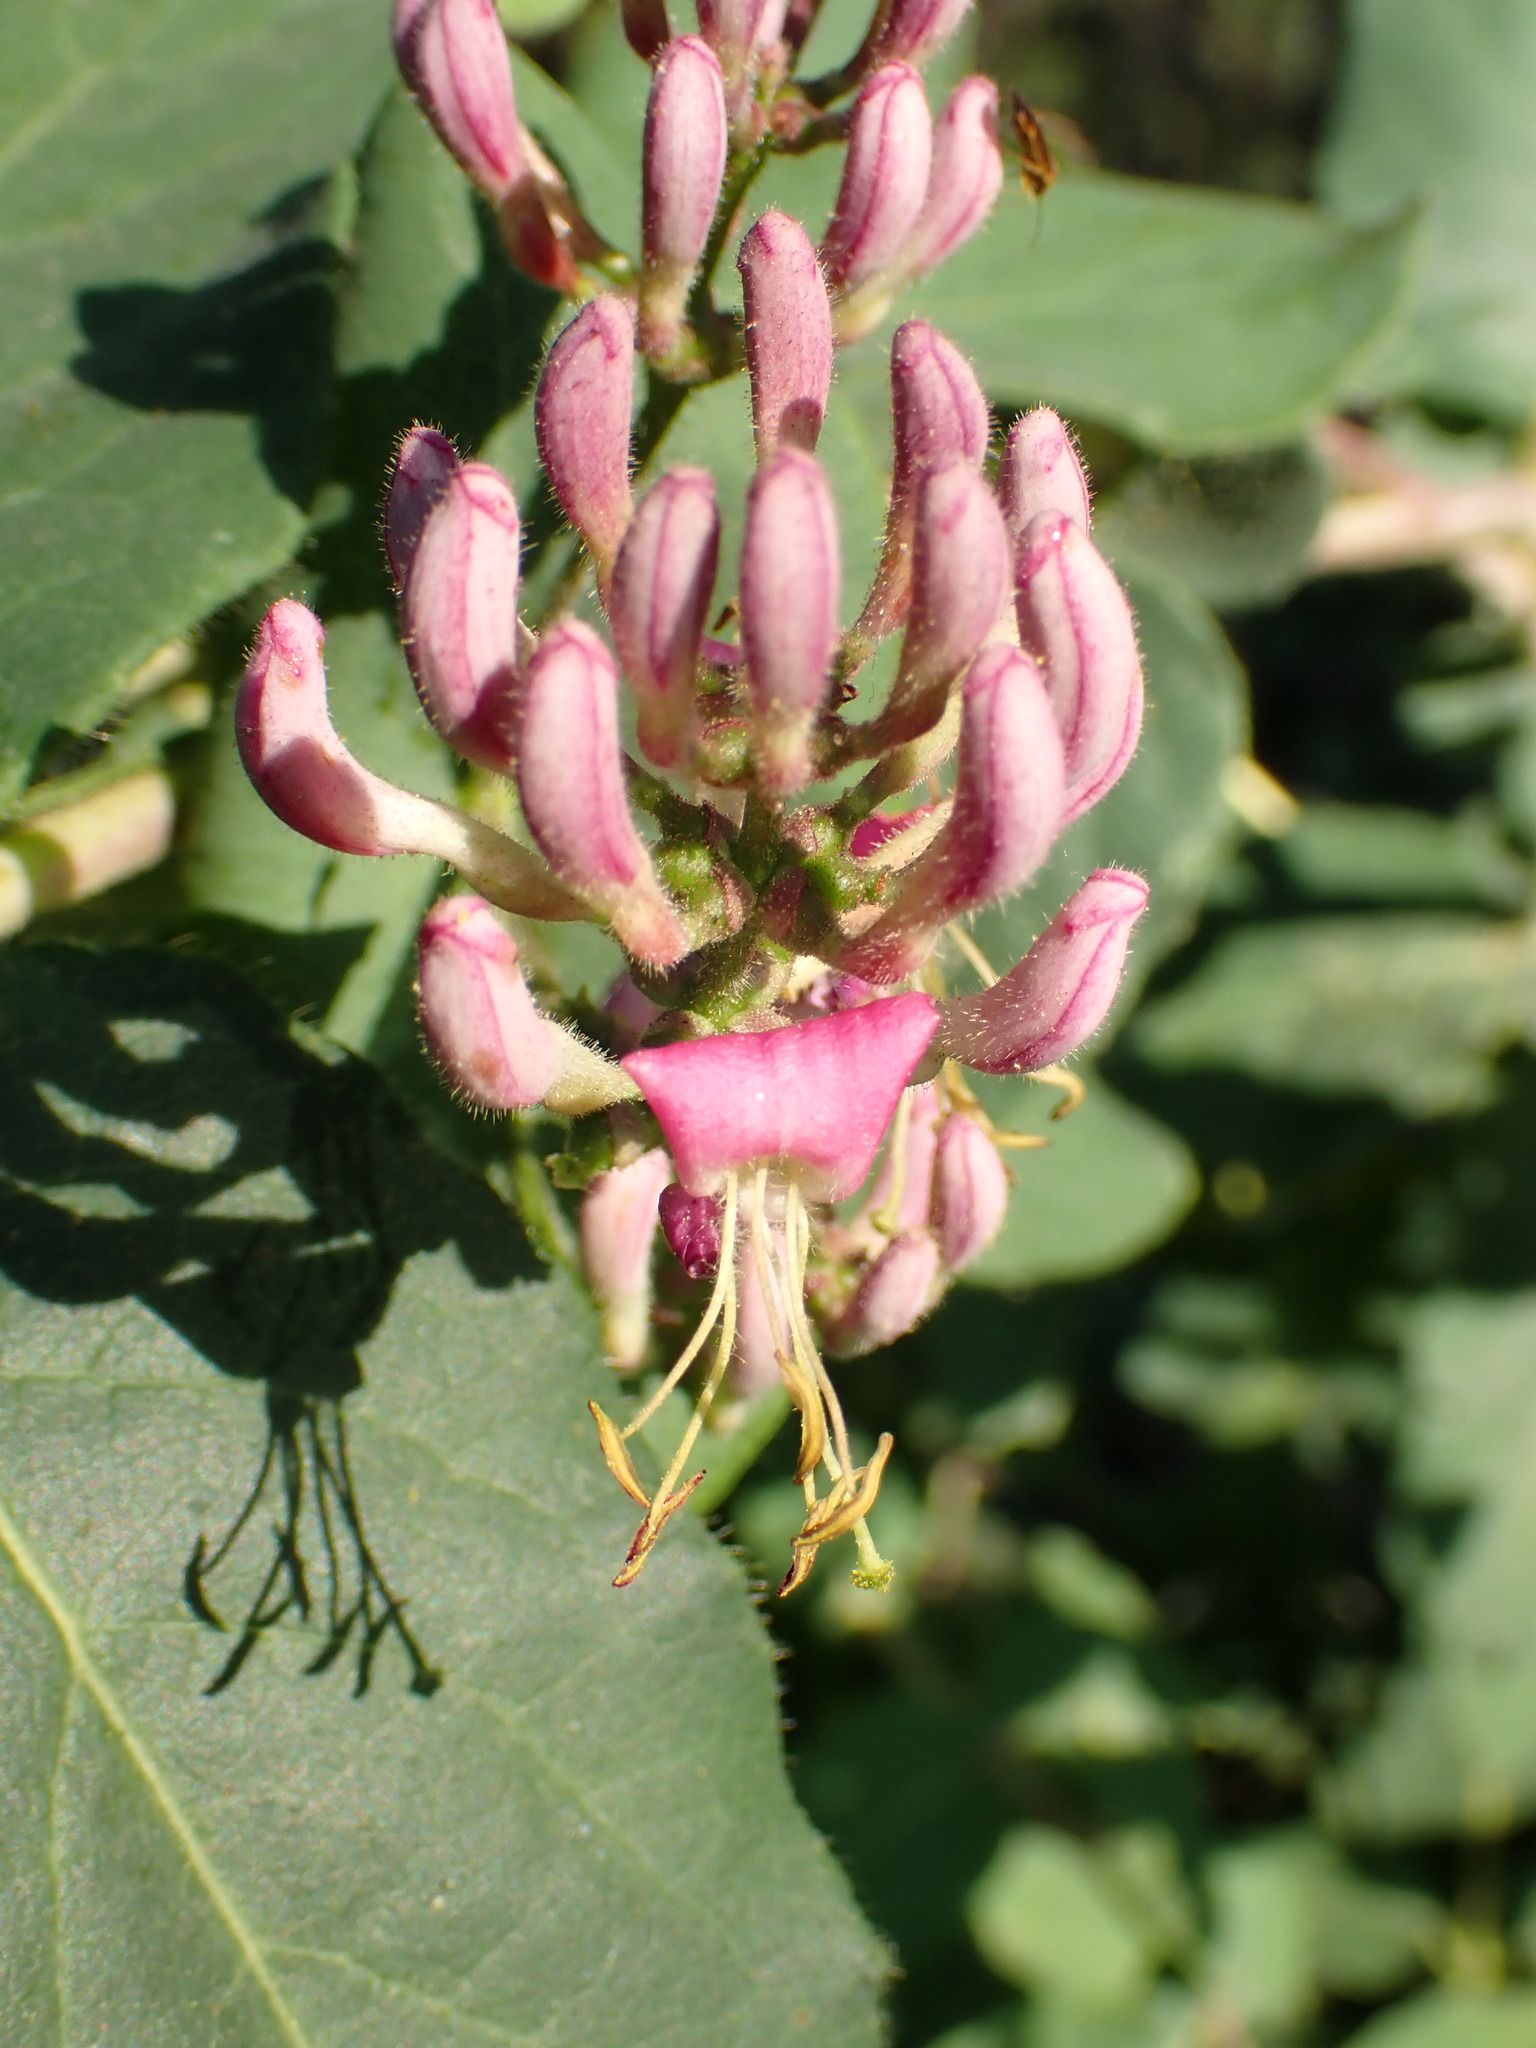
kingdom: Plantae
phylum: Tracheophyta
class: Magnoliopsida
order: Dipsacales
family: Caprifoliaceae
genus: Lonicera
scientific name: Lonicera hispidula
